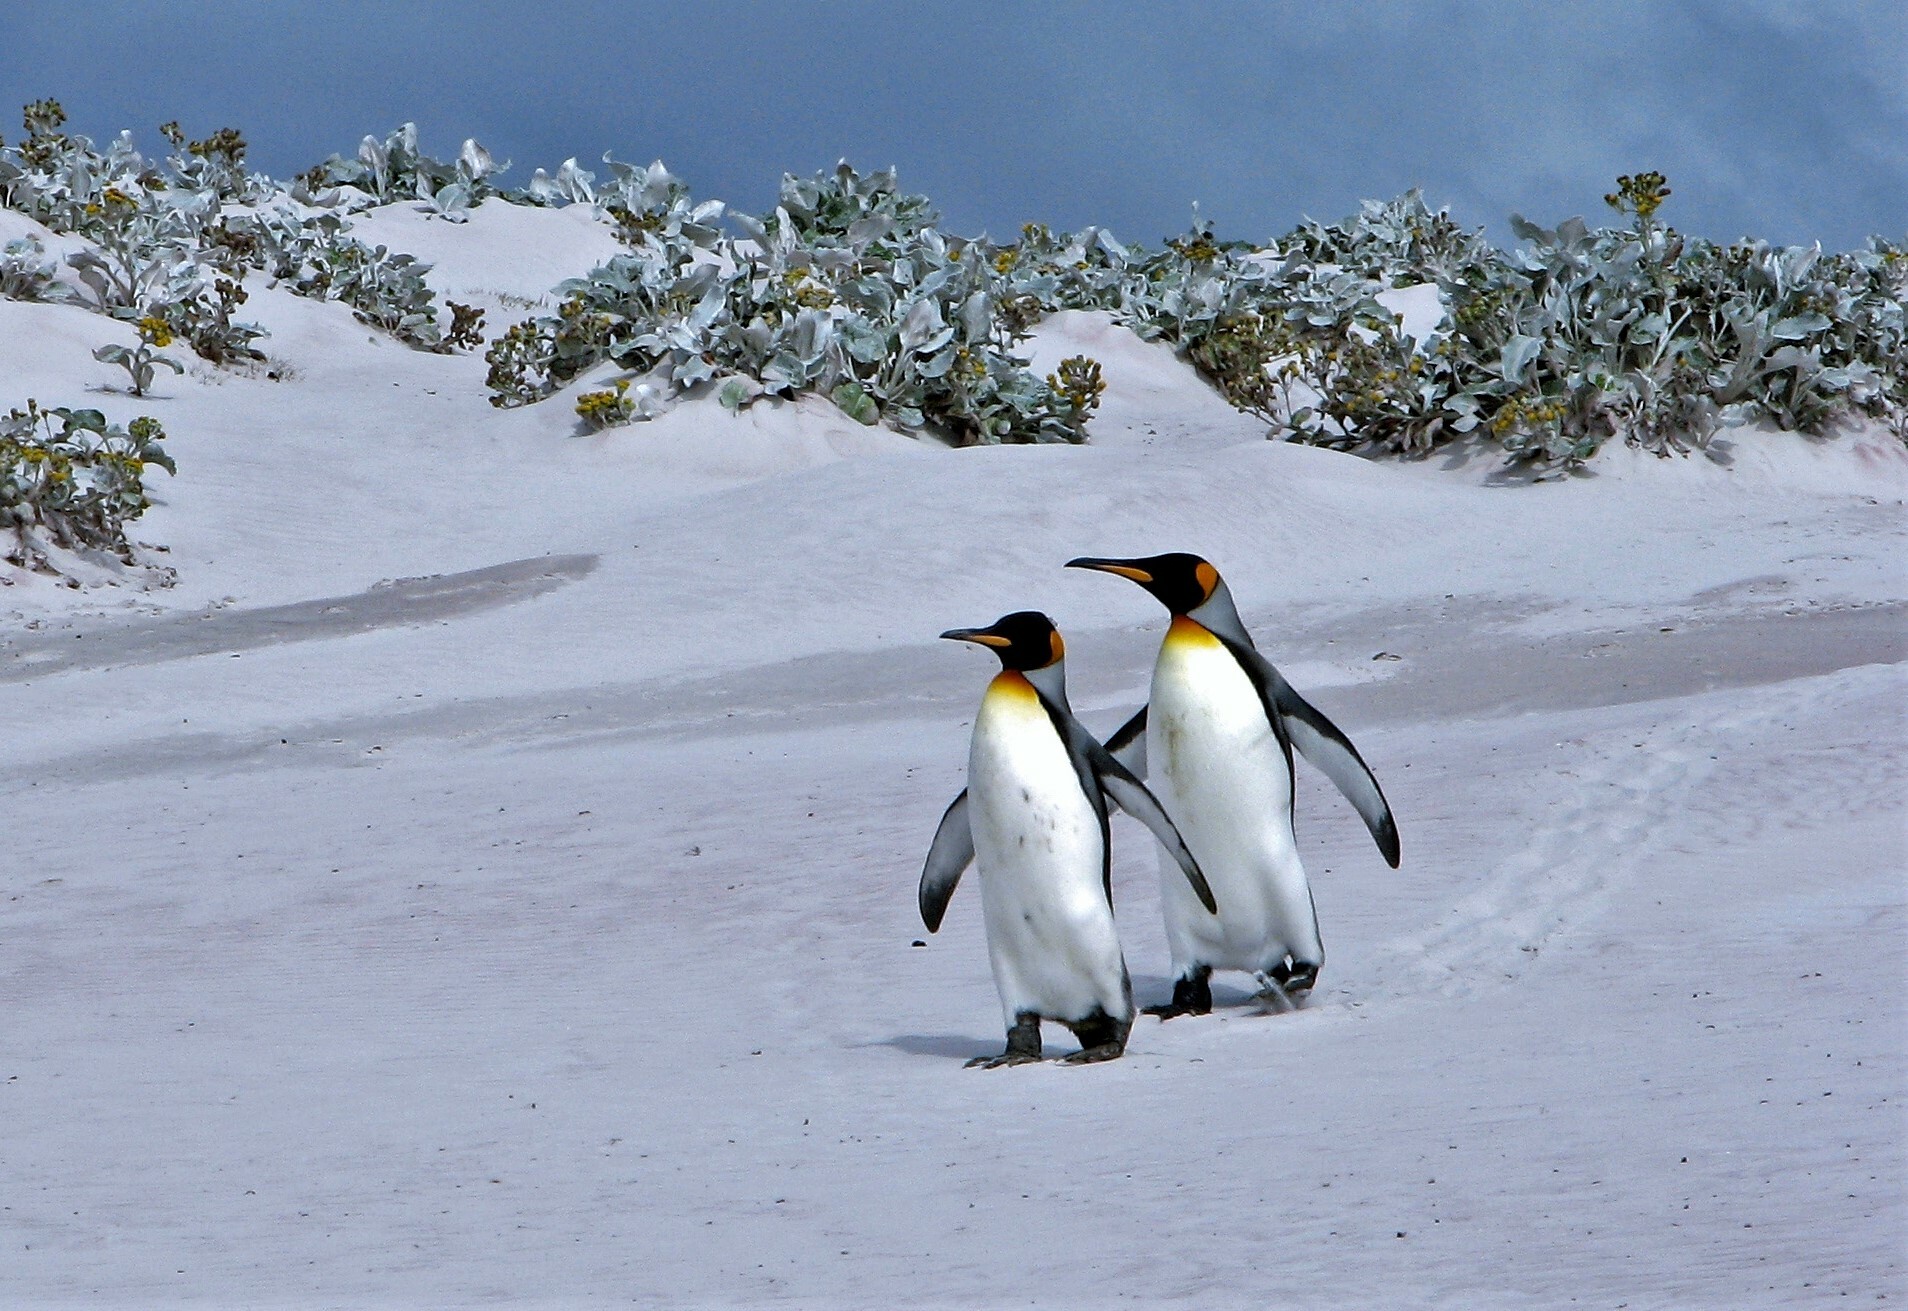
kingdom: Animalia
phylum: Chordata
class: Aves
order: Sphenisciformes
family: Spheniscidae
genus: Aptenodytes
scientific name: Aptenodytes patagonicus
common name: King penguin
